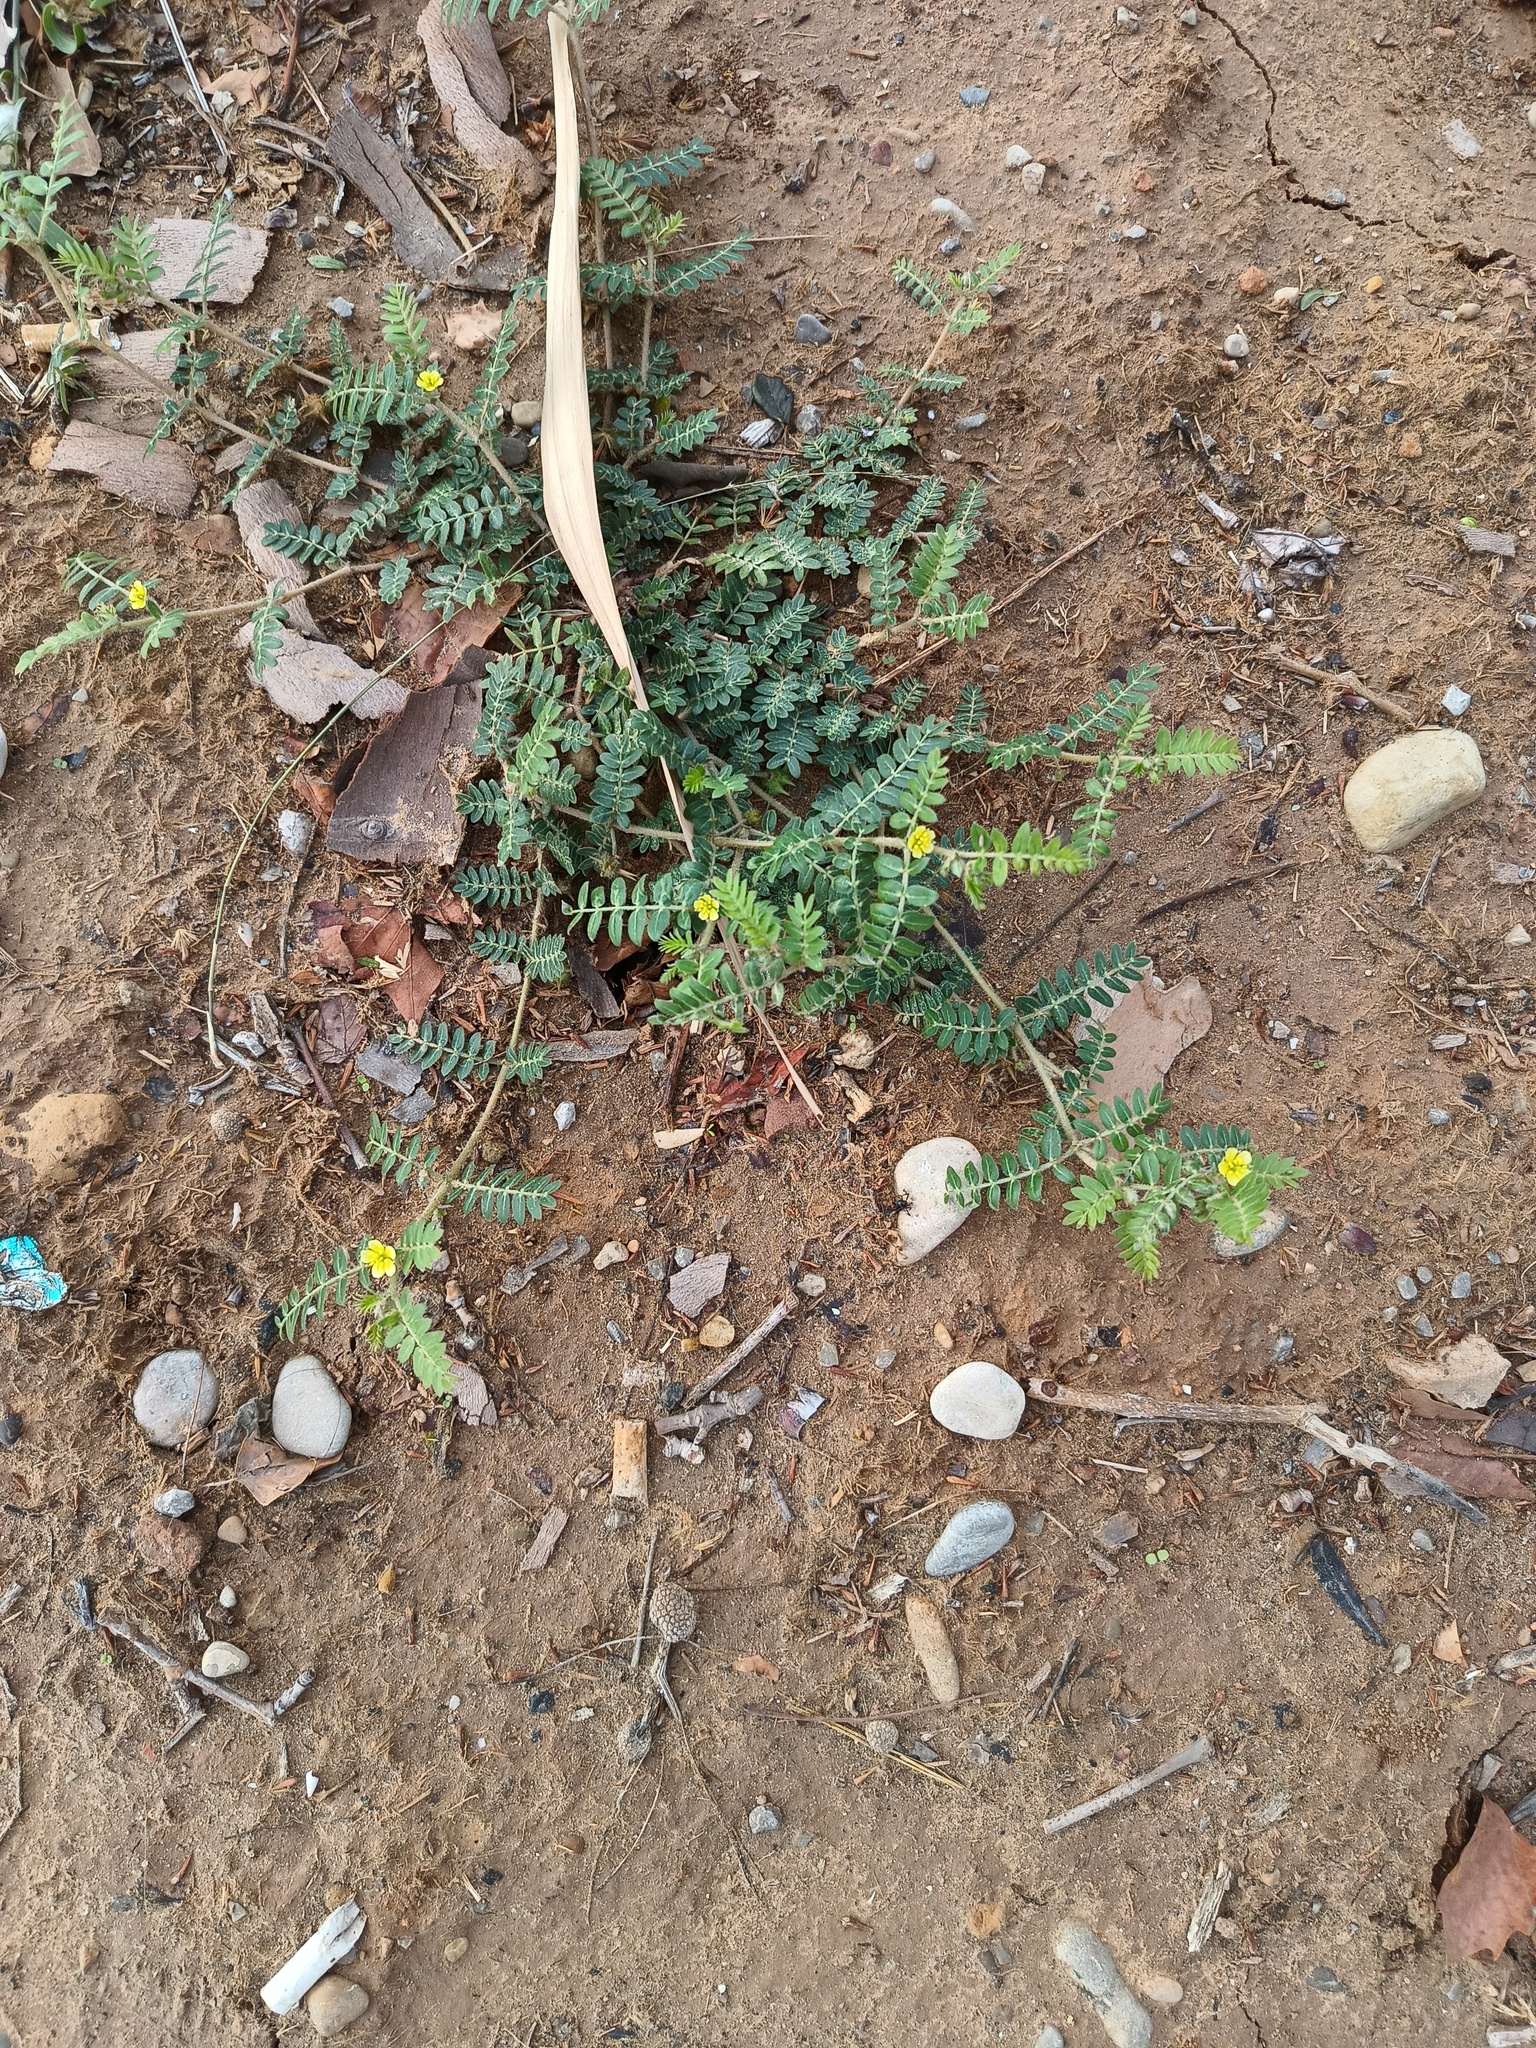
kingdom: Plantae
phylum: Tracheophyta
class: Magnoliopsida
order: Zygophyllales
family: Zygophyllaceae
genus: Tribulus
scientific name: Tribulus terrestris
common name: Puncturevine
